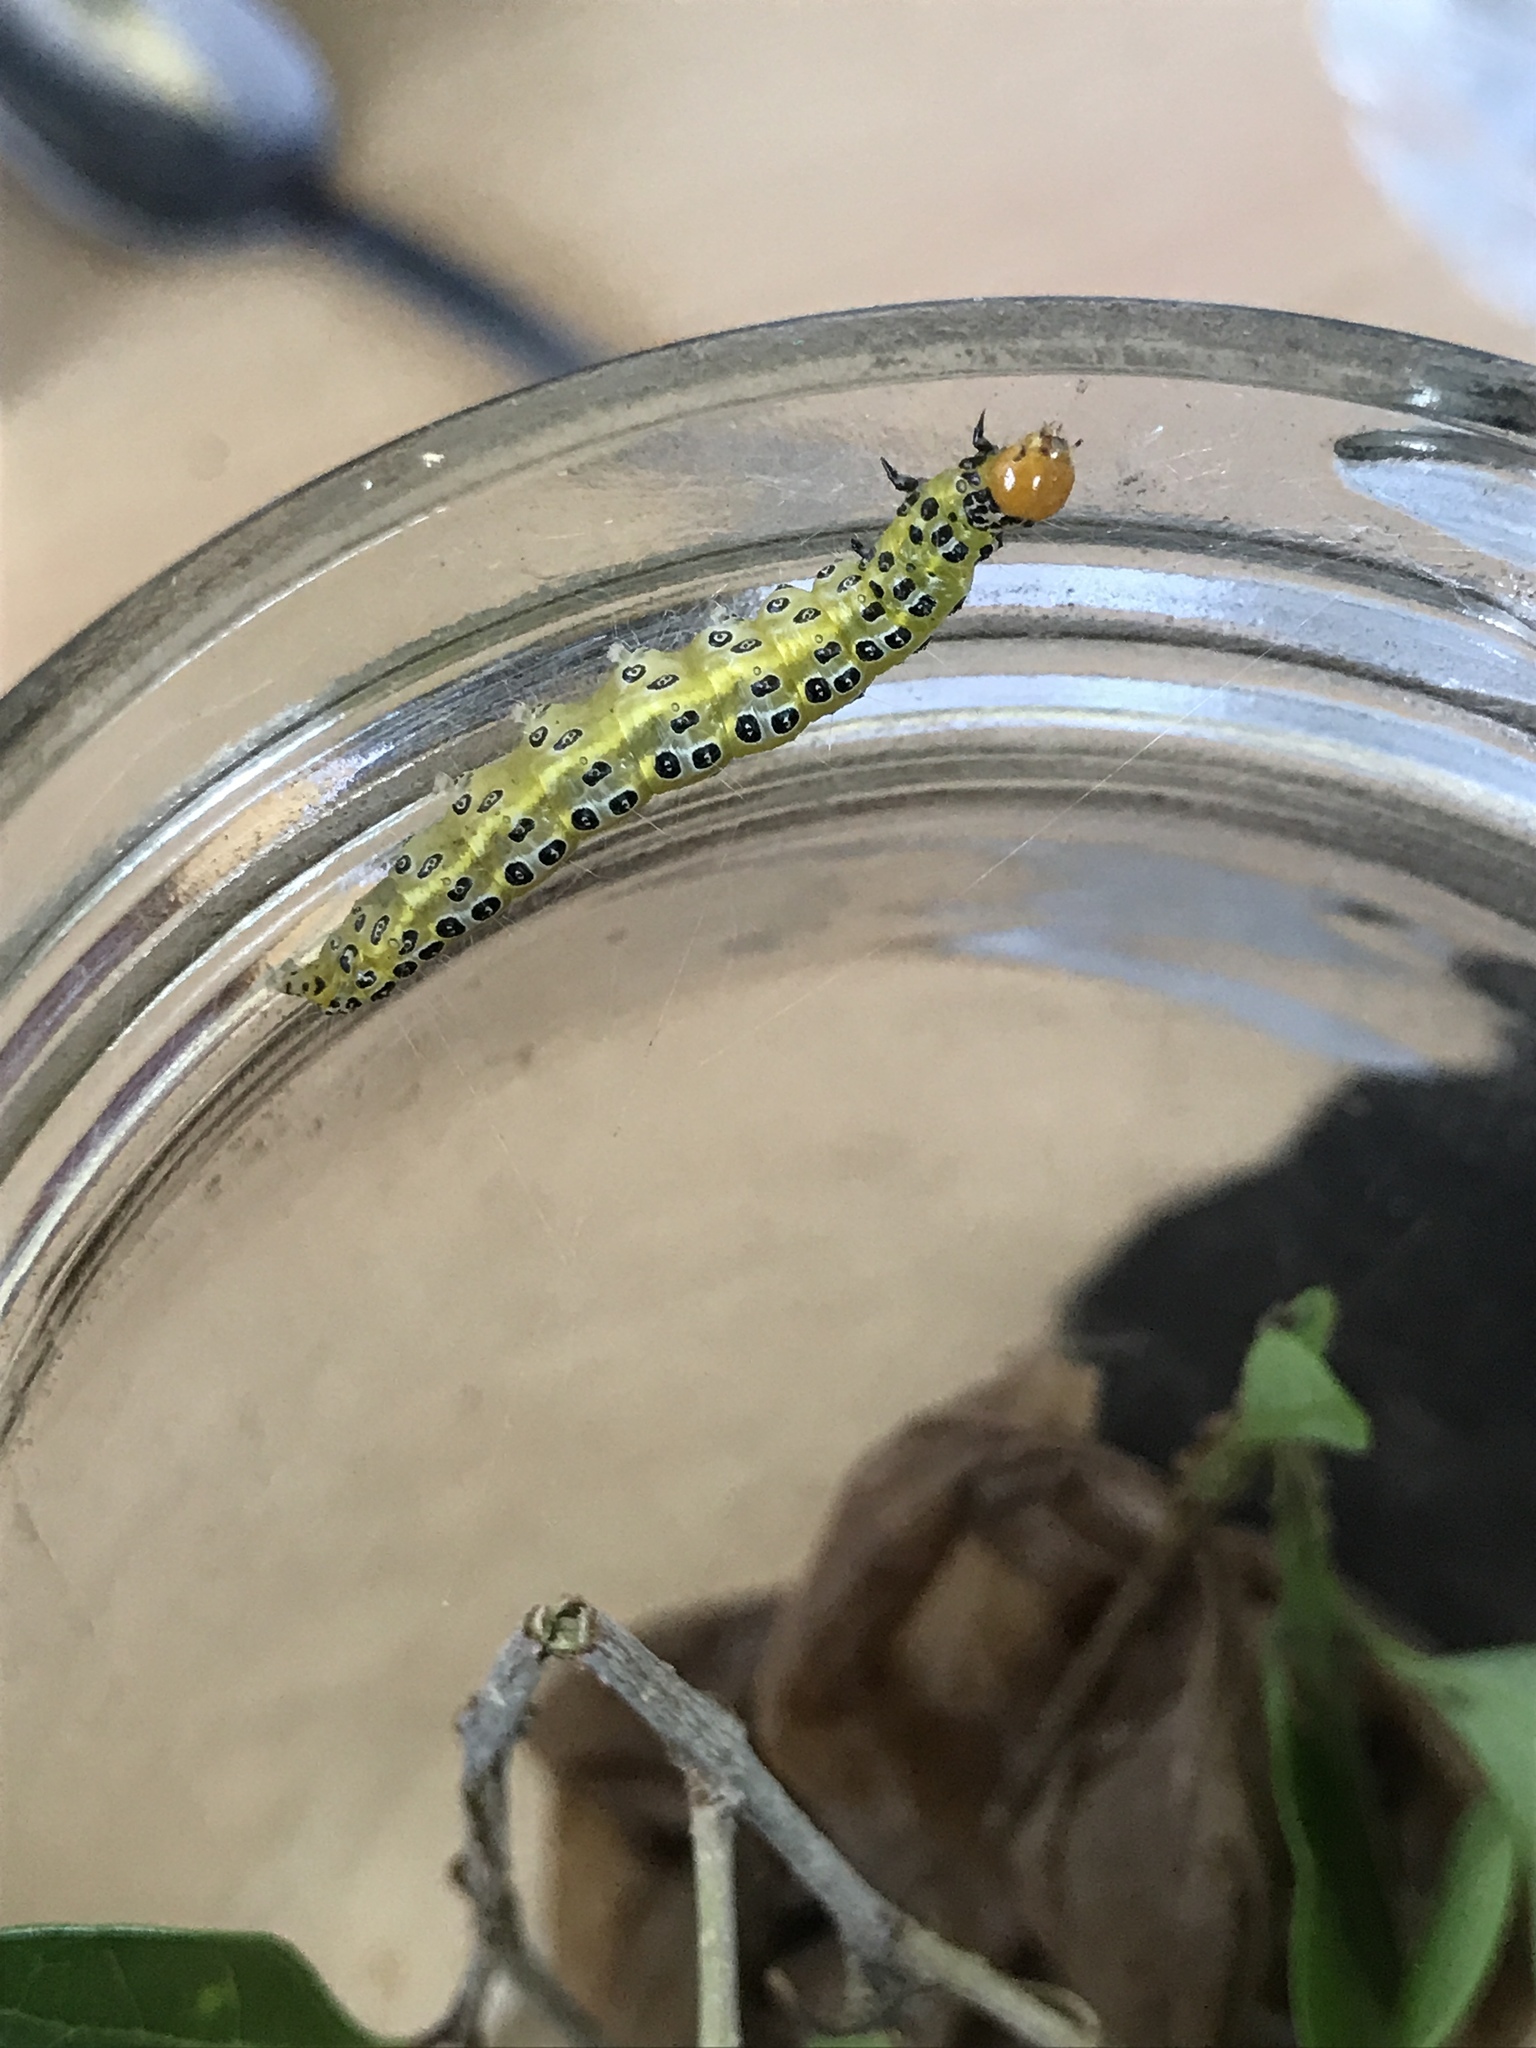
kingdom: Animalia
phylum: Arthropoda
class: Insecta
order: Lepidoptera
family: Crambidae
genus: Epicorsia
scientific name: Epicorsia oedipodalis
